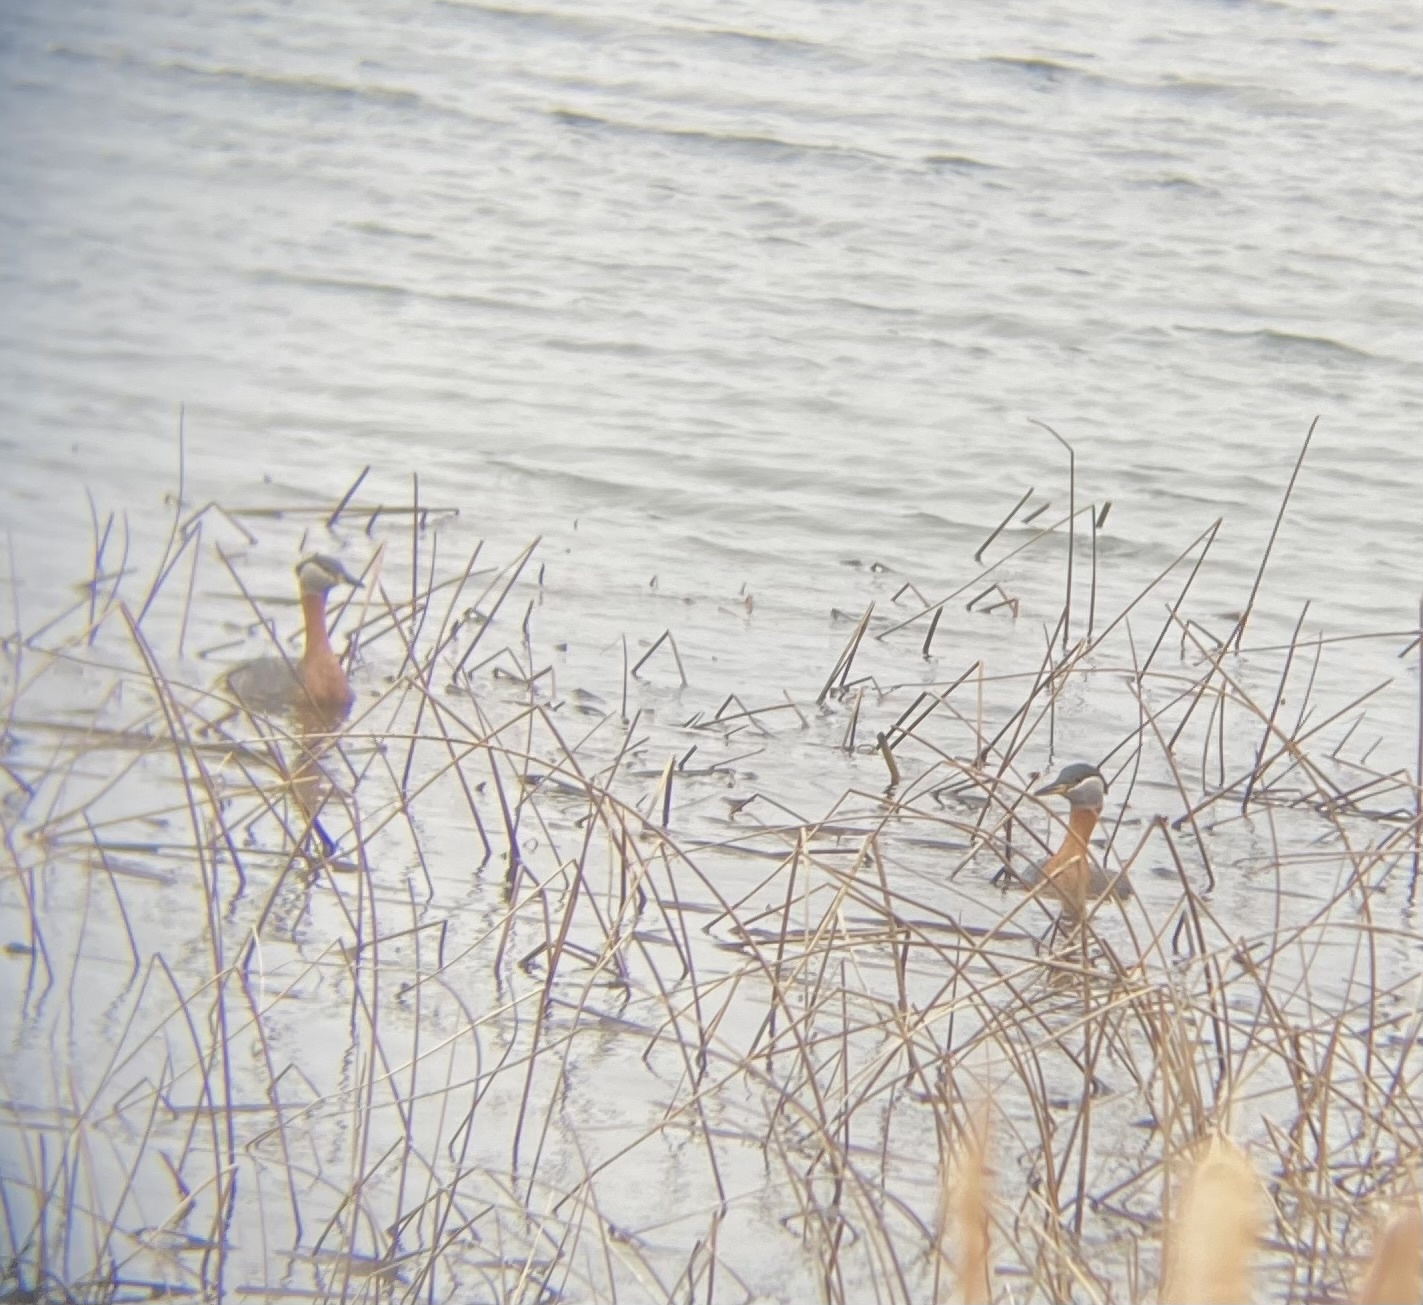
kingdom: Animalia
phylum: Chordata
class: Aves
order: Podicipediformes
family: Podicipedidae
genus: Podiceps
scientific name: Podiceps grisegena
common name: Red-necked grebe
